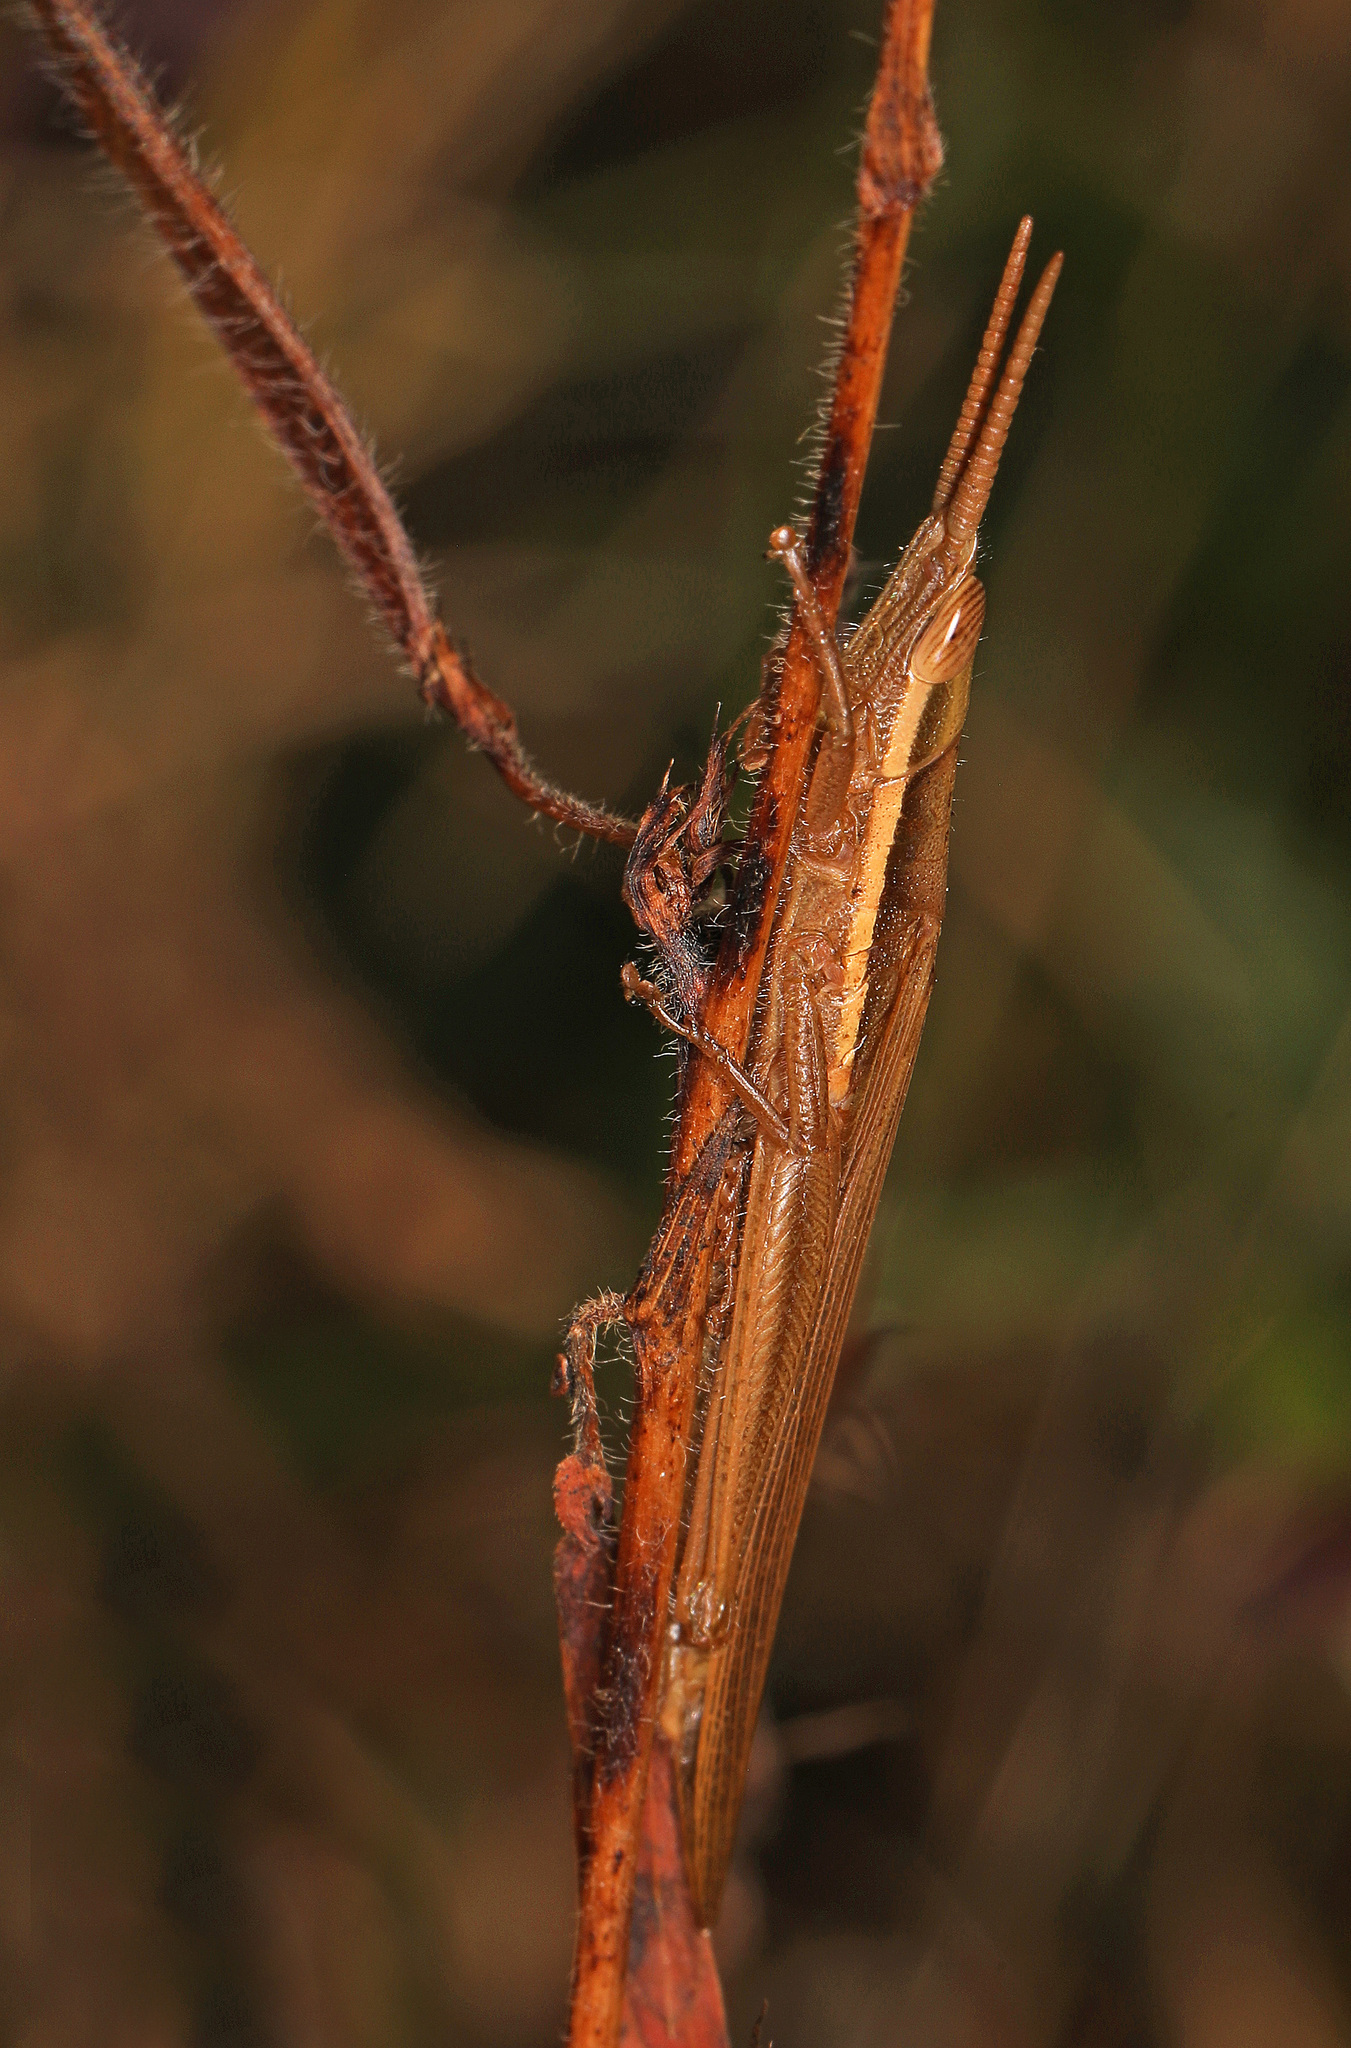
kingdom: Animalia
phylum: Arthropoda
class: Insecta
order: Orthoptera
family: Acrididae
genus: Leptysma
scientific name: Leptysma marginicollis
